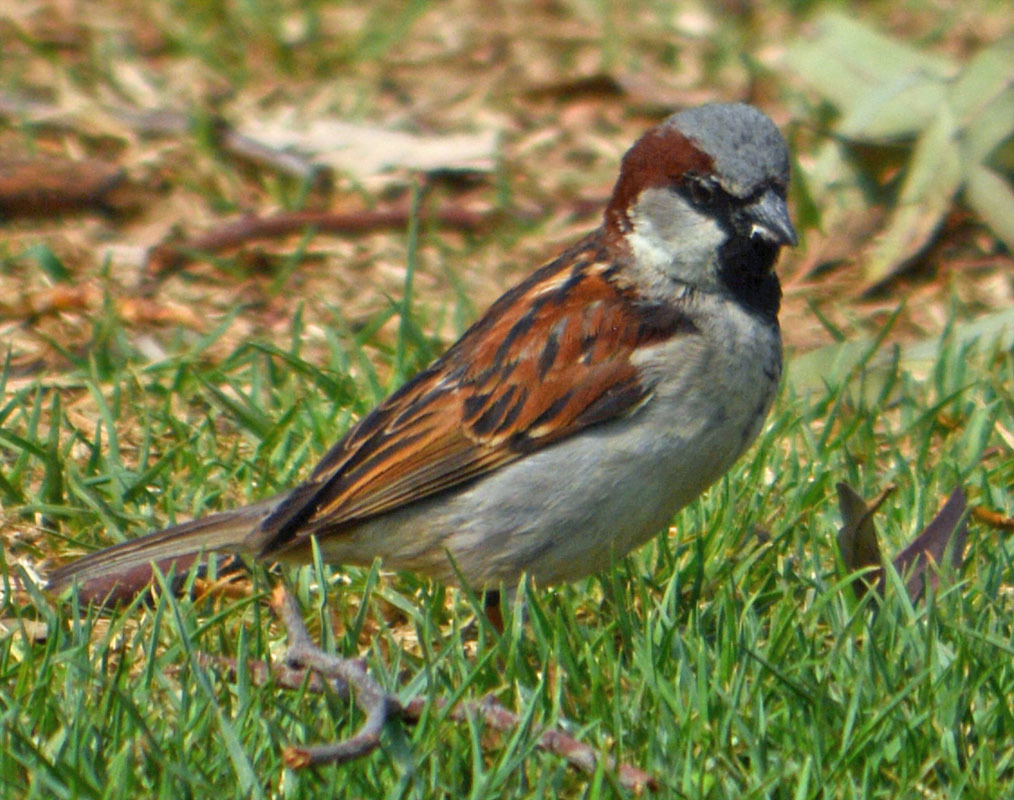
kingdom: Animalia
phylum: Chordata
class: Aves
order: Passeriformes
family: Passeridae
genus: Passer
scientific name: Passer domesticus
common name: House sparrow
